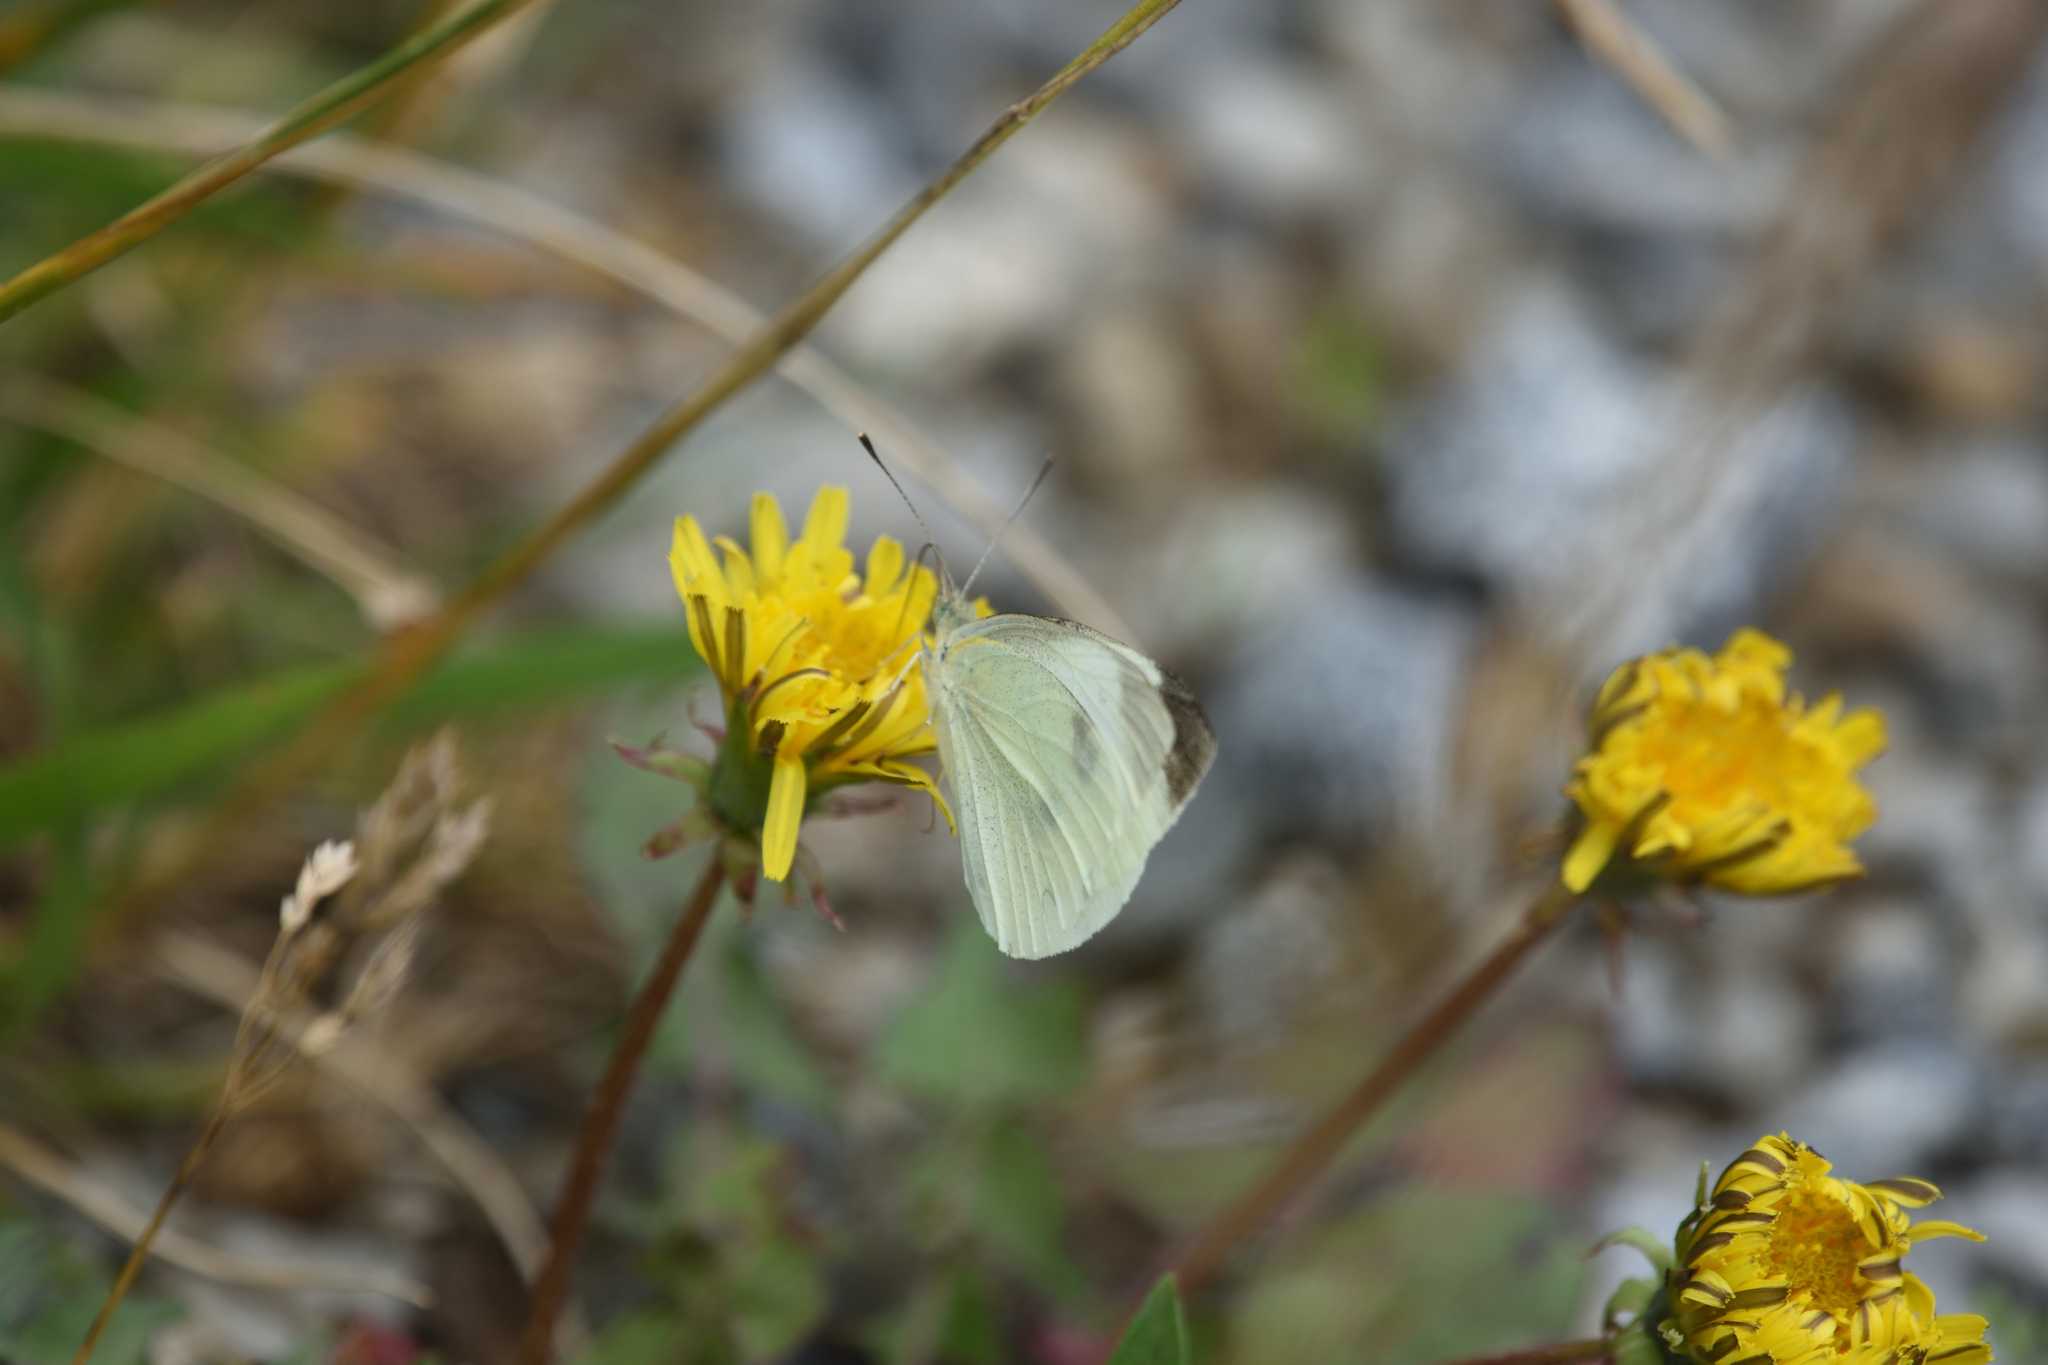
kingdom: Animalia
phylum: Arthropoda
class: Insecta
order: Lepidoptera
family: Pieridae
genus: Pieris
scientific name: Pieris rapae
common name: Small white
